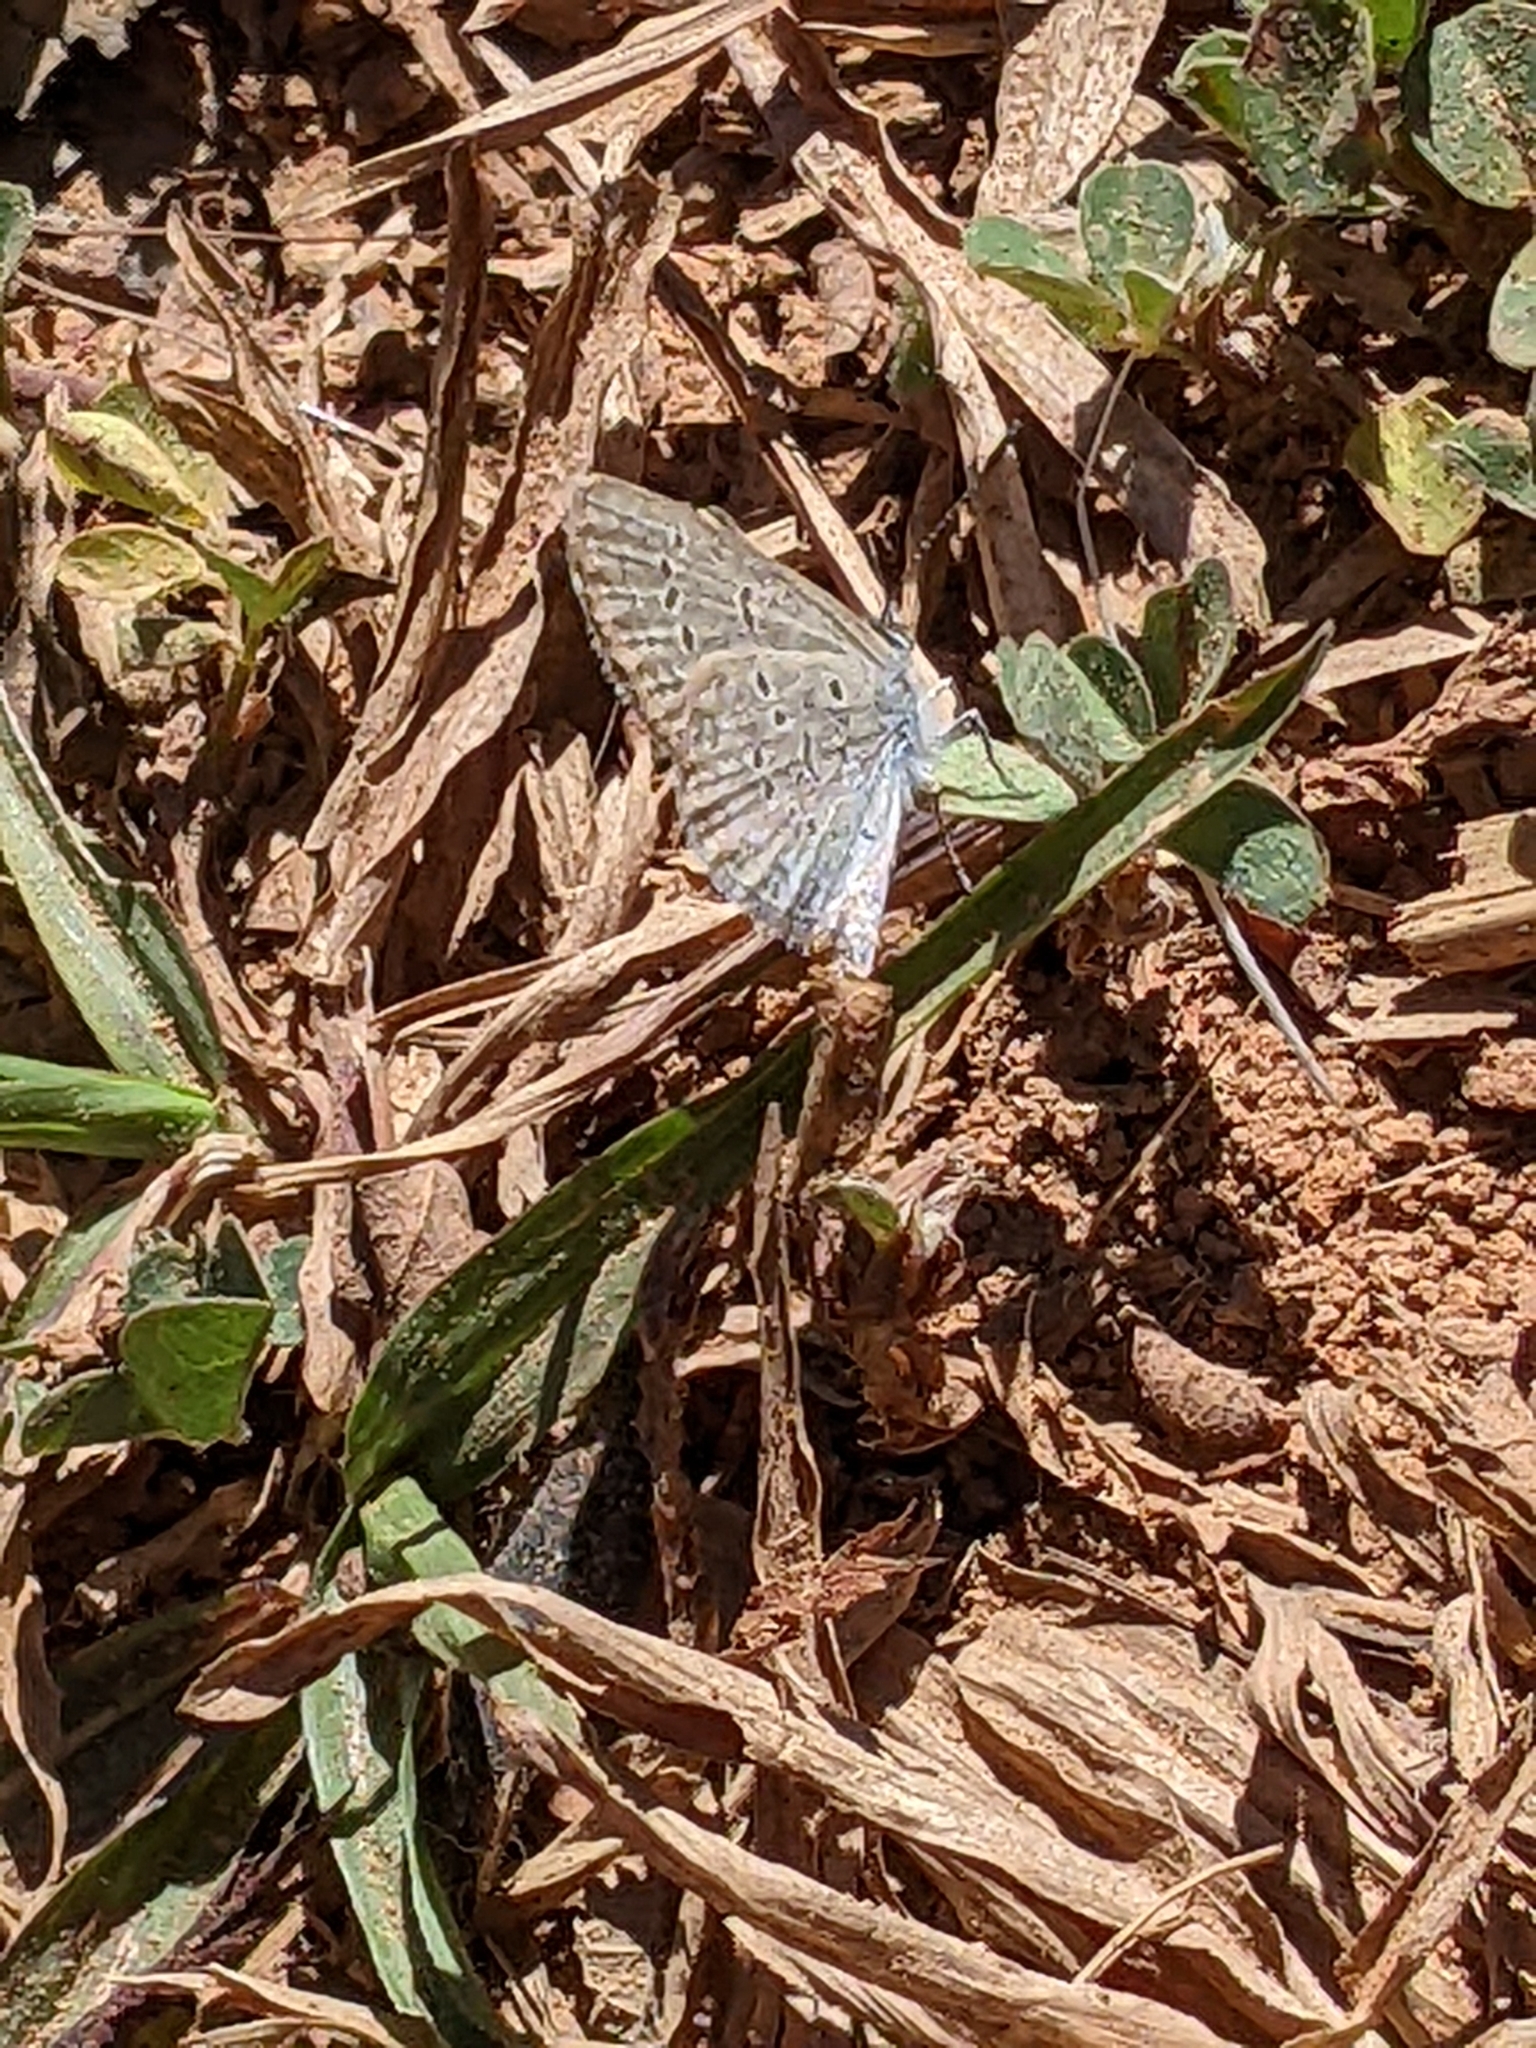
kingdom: Animalia
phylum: Arthropoda
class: Insecta
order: Lepidoptera
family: Lycaenidae
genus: Zizina
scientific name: Zizina otis
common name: Lesser grass blue
